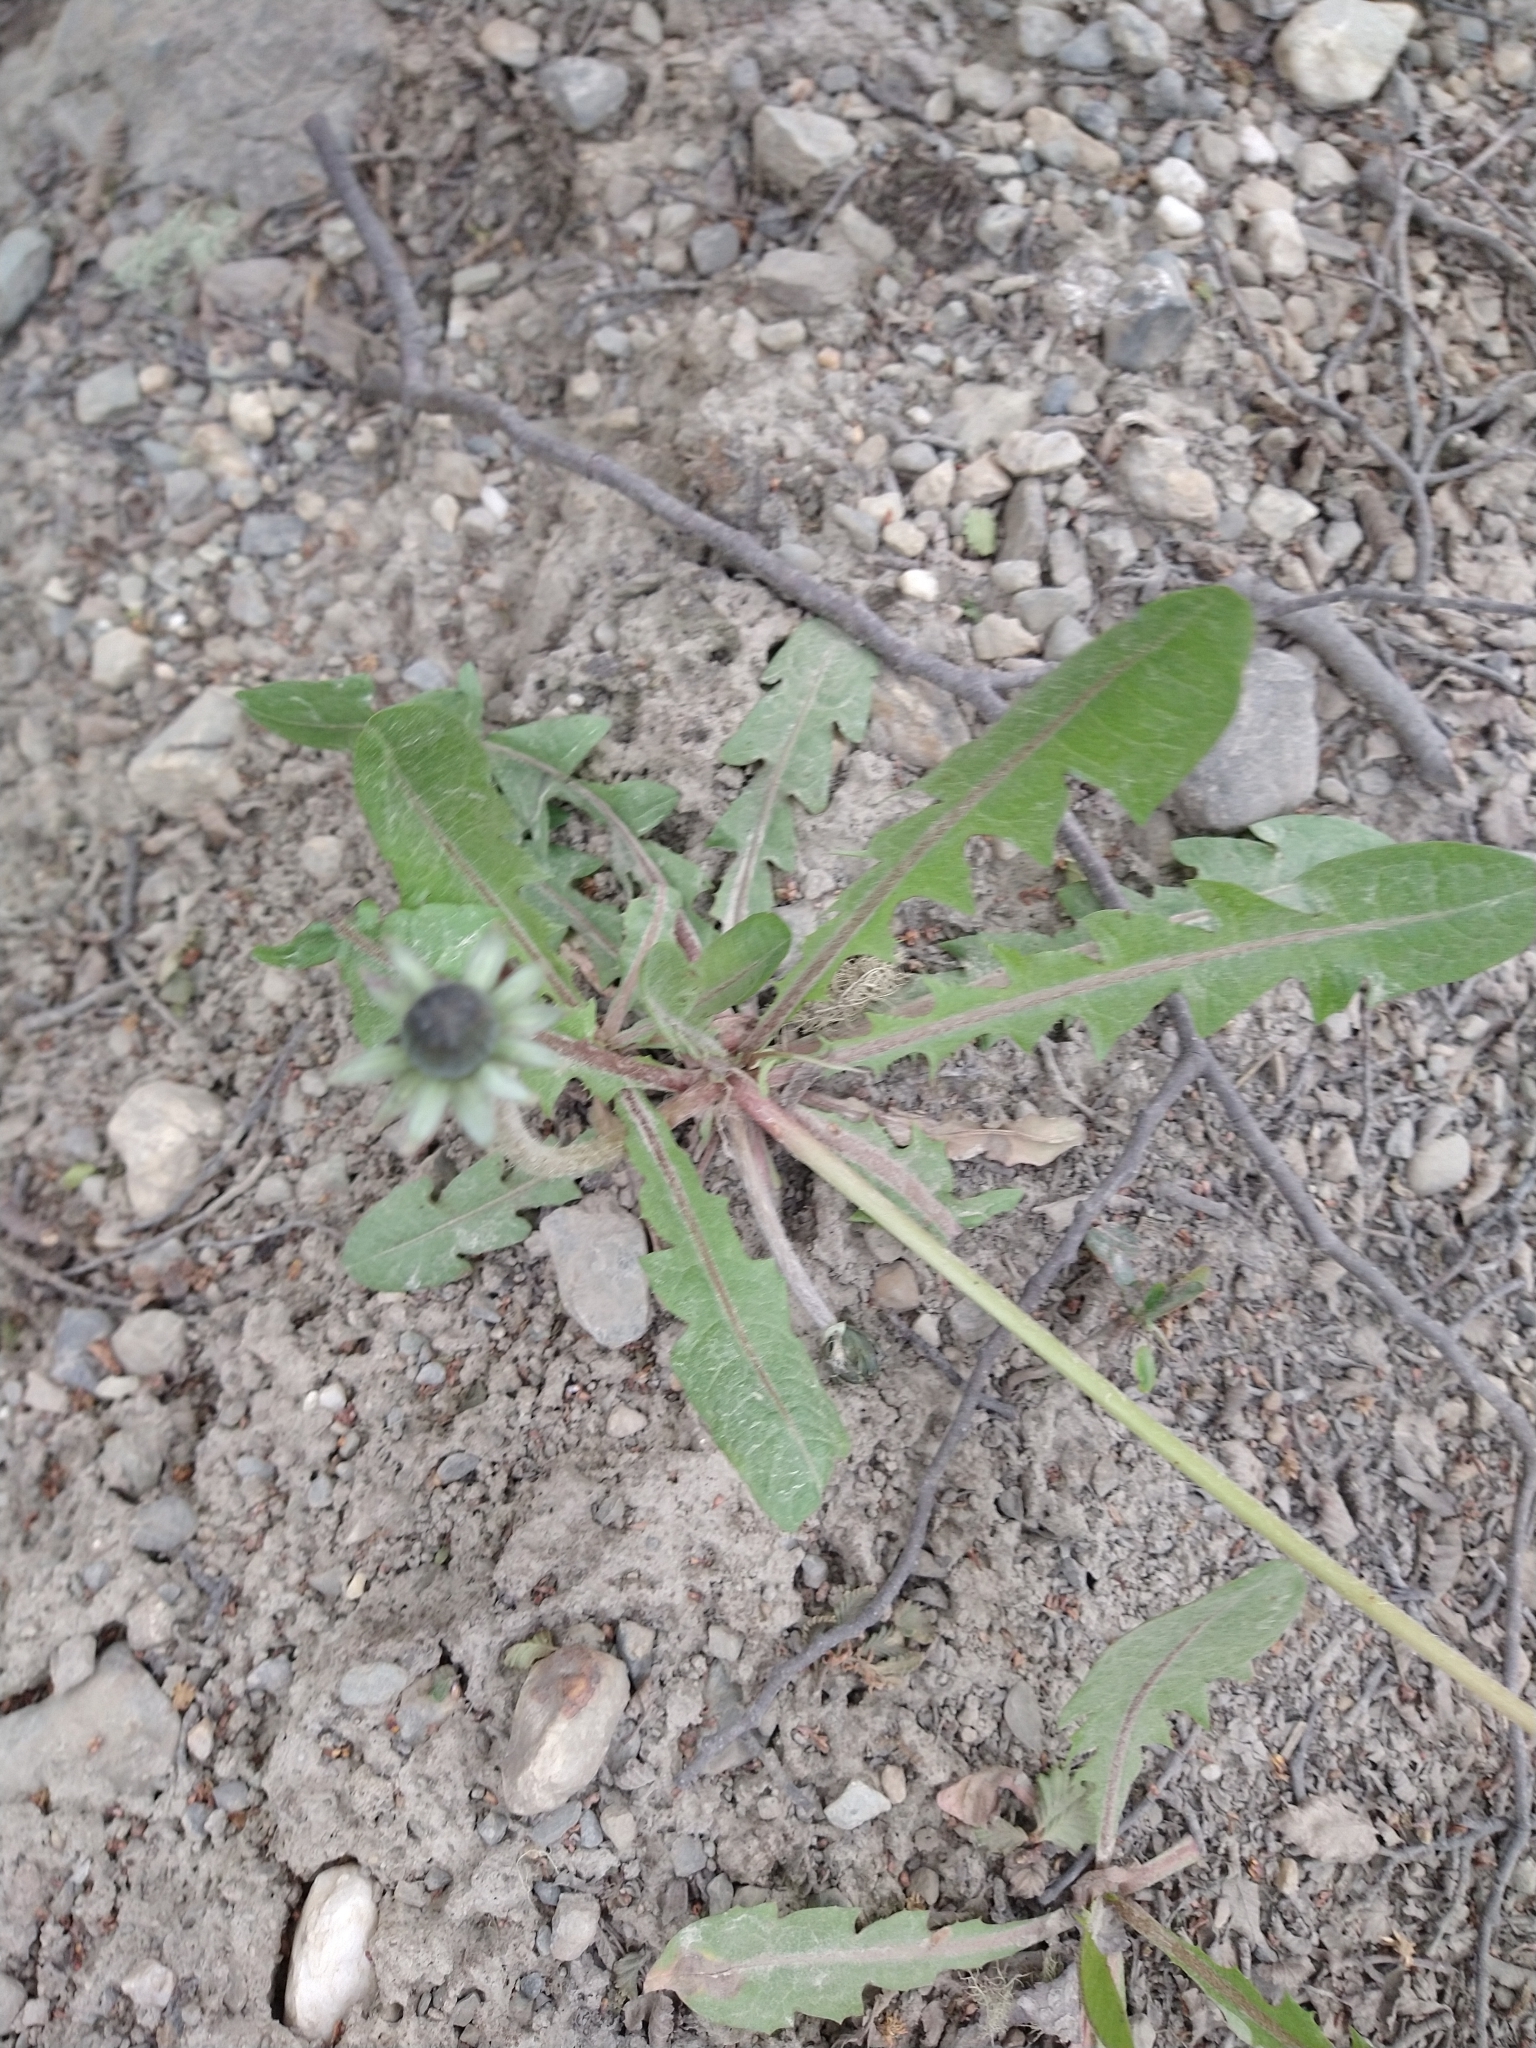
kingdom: Plantae
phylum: Tracheophyta
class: Magnoliopsida
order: Asterales
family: Asteraceae
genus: Taraxacum
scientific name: Taraxacum officinale
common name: Common dandelion
